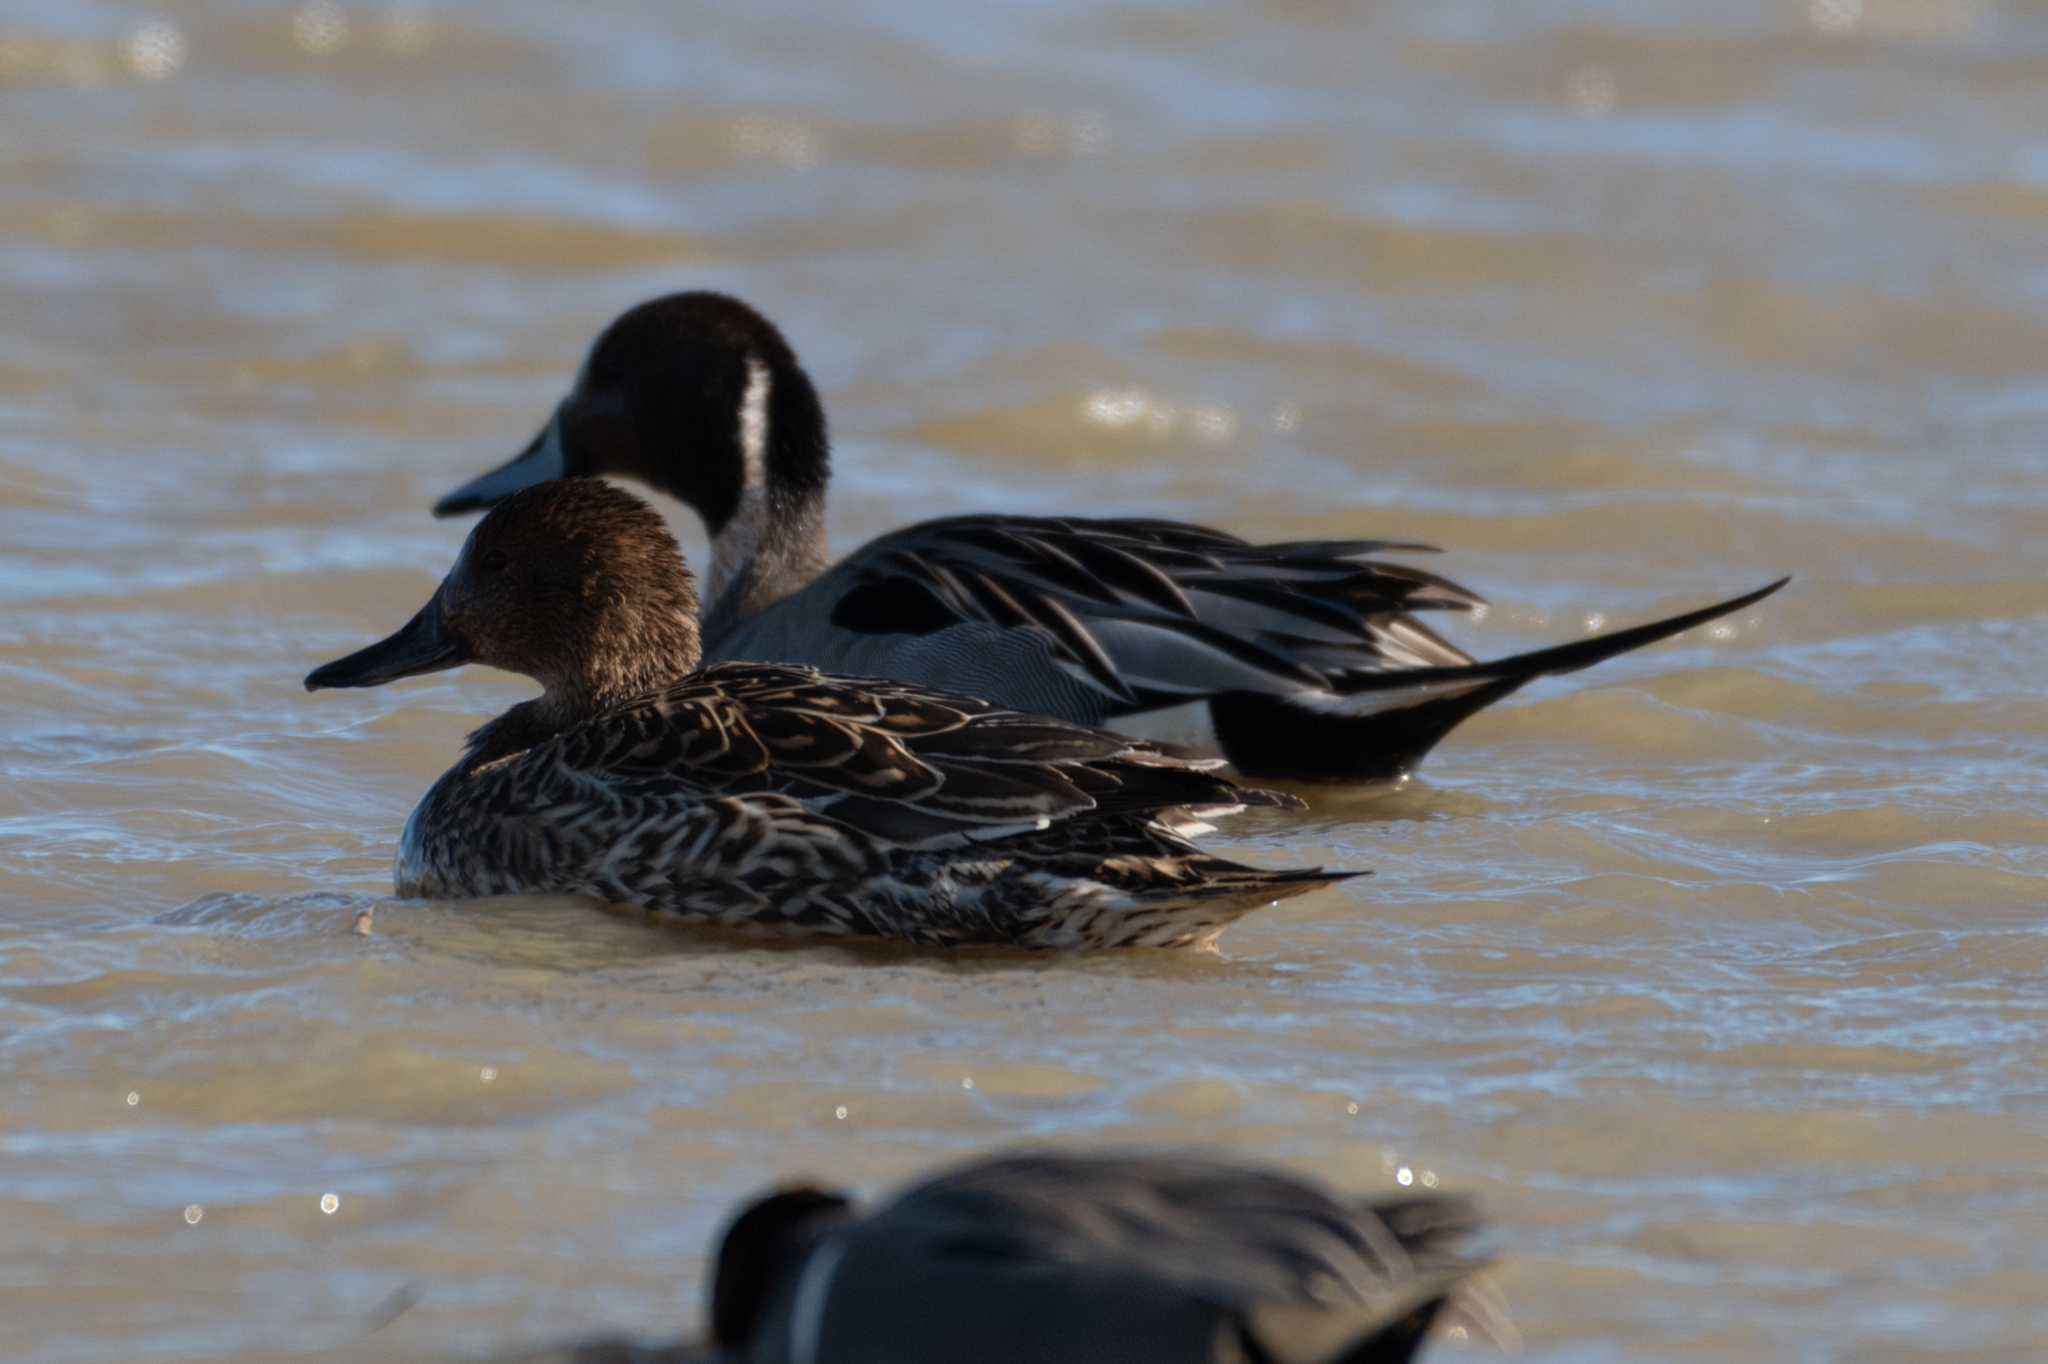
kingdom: Animalia
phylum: Chordata
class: Aves
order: Anseriformes
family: Anatidae
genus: Anas
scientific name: Anas acuta
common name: Northern pintail
